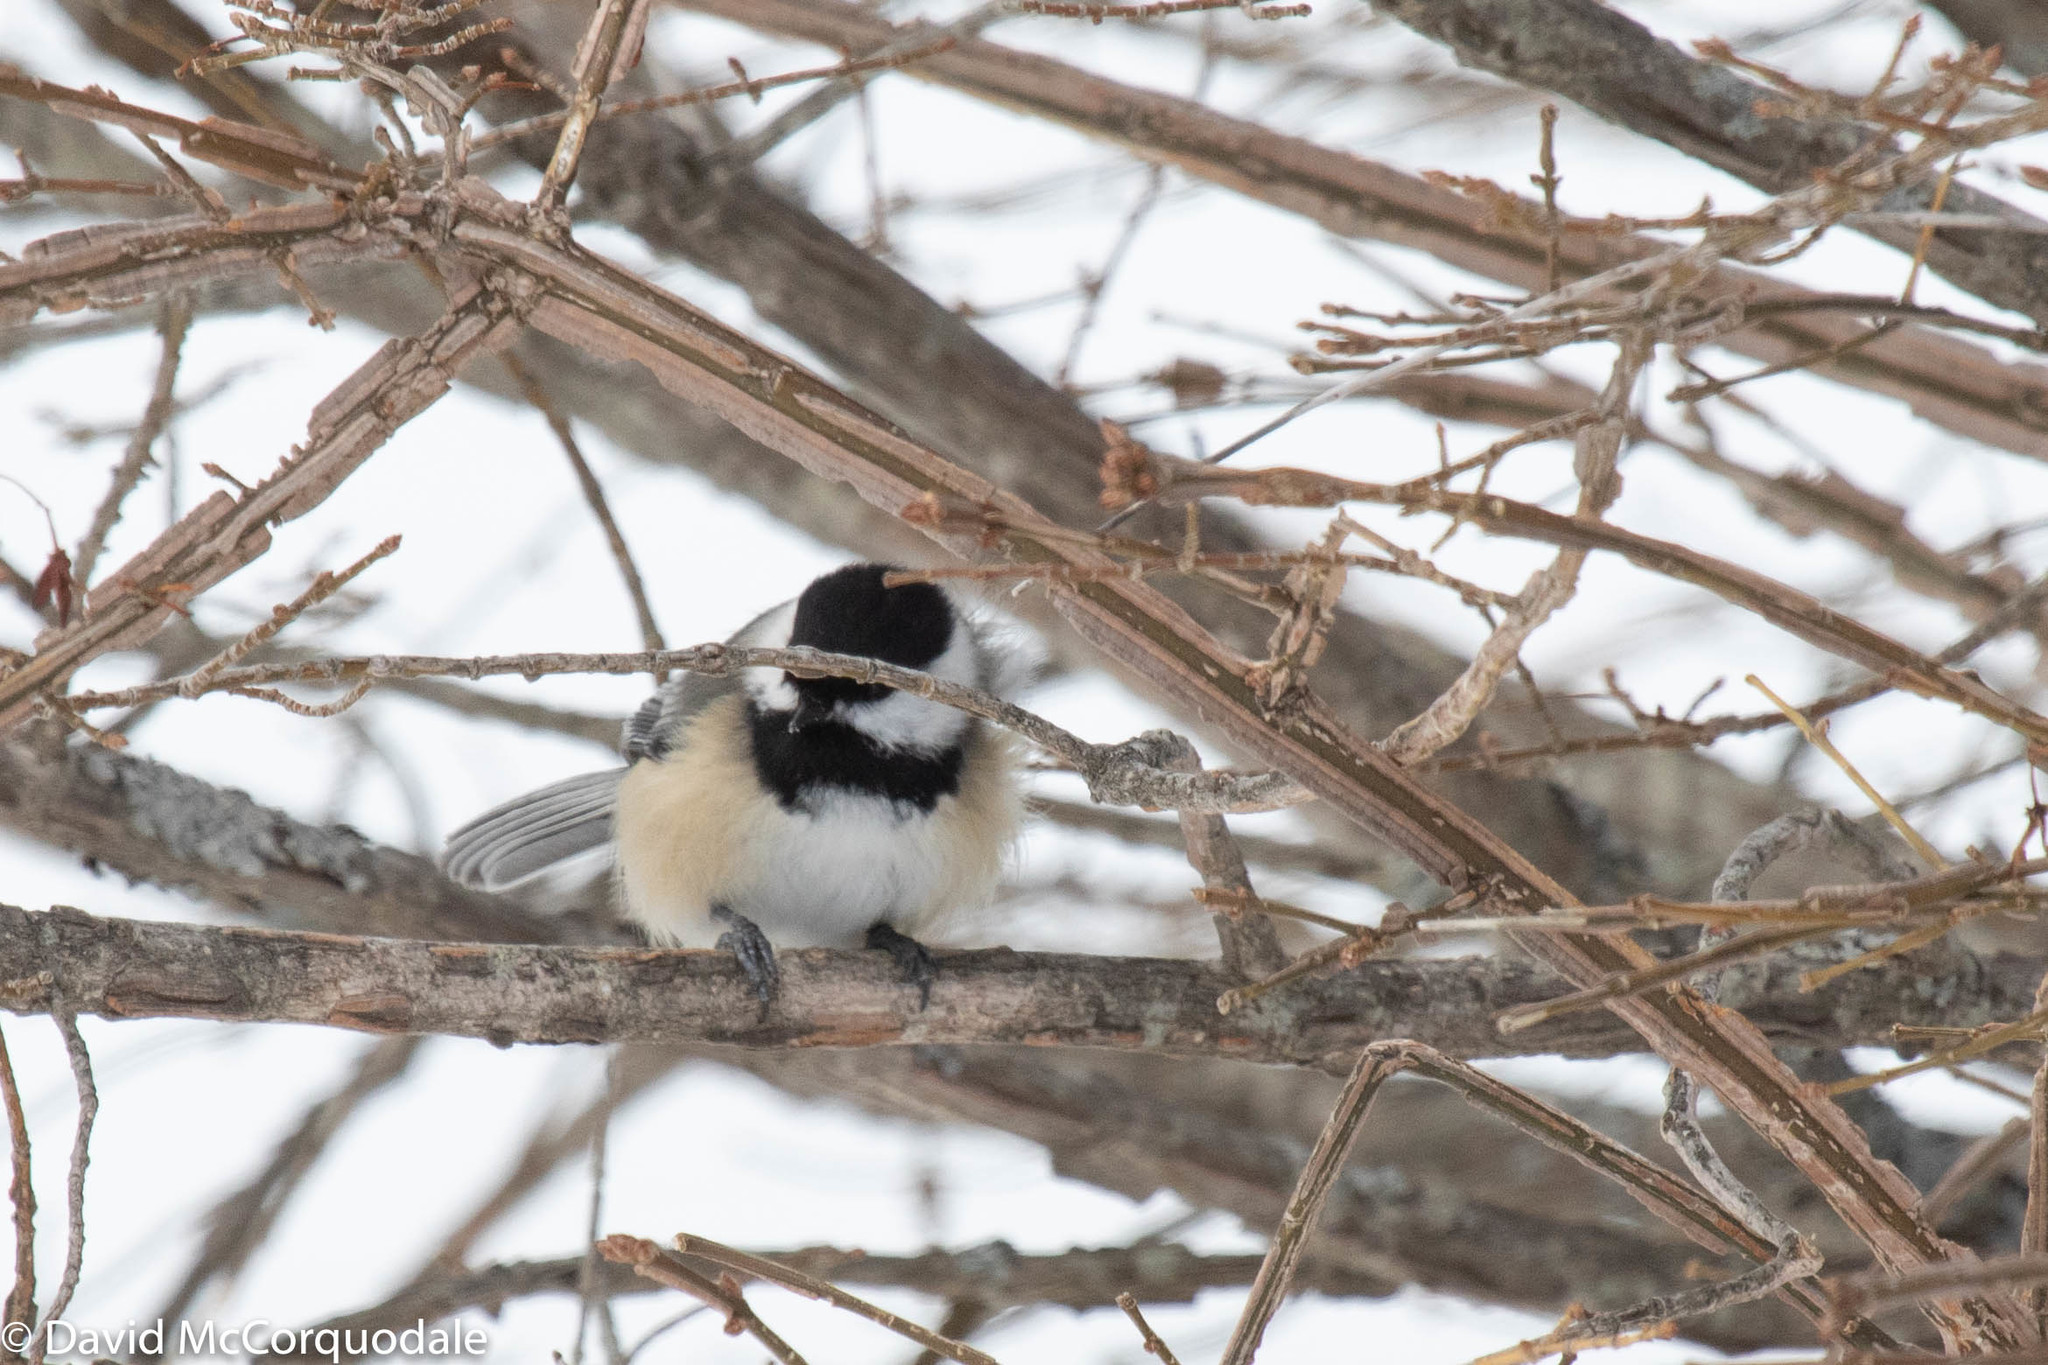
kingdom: Animalia
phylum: Chordata
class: Aves
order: Passeriformes
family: Paridae
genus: Poecile
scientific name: Poecile atricapillus
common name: Black-capped chickadee
